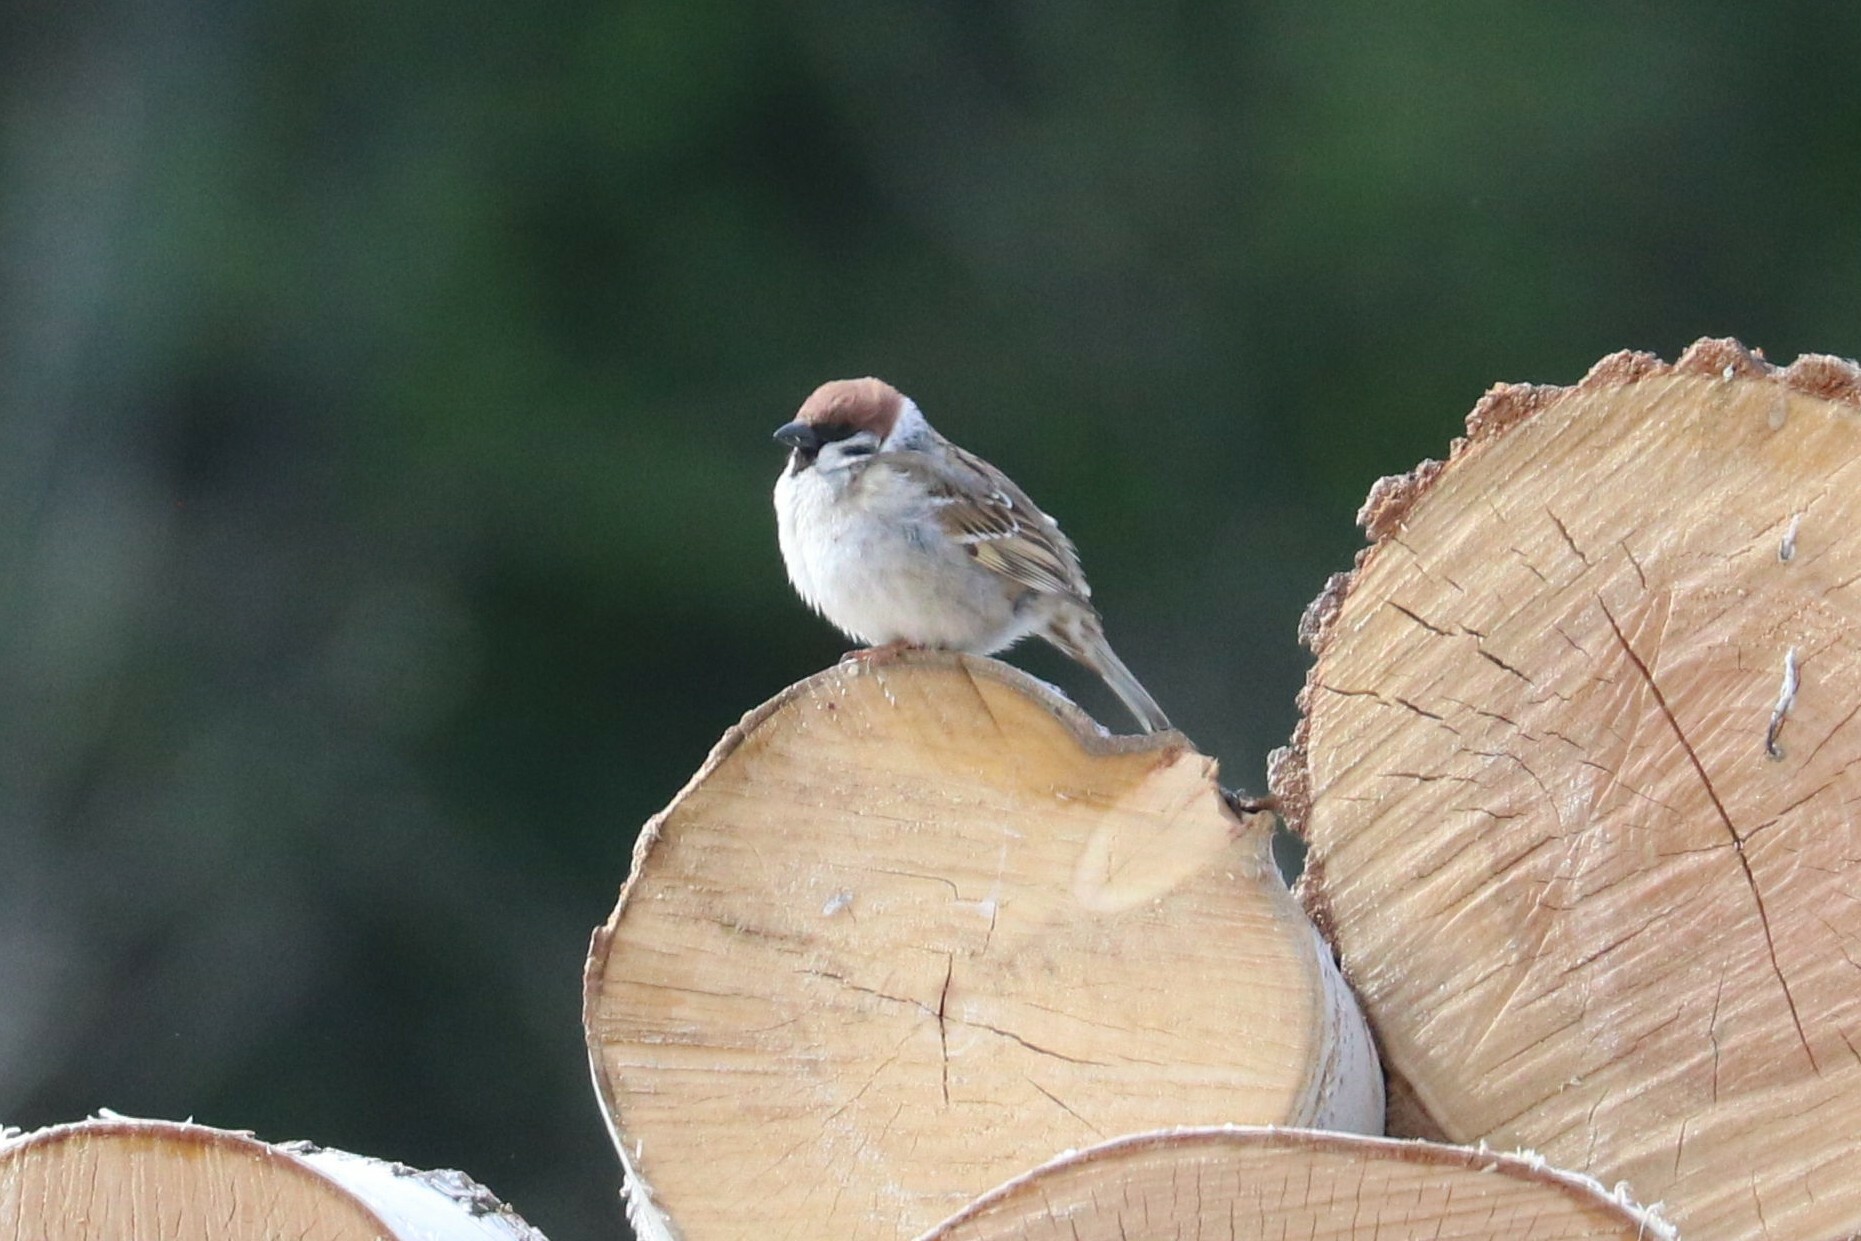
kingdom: Animalia
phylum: Chordata
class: Aves
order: Passeriformes
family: Passeridae
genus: Passer
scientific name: Passer montanus
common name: Eurasian tree sparrow
